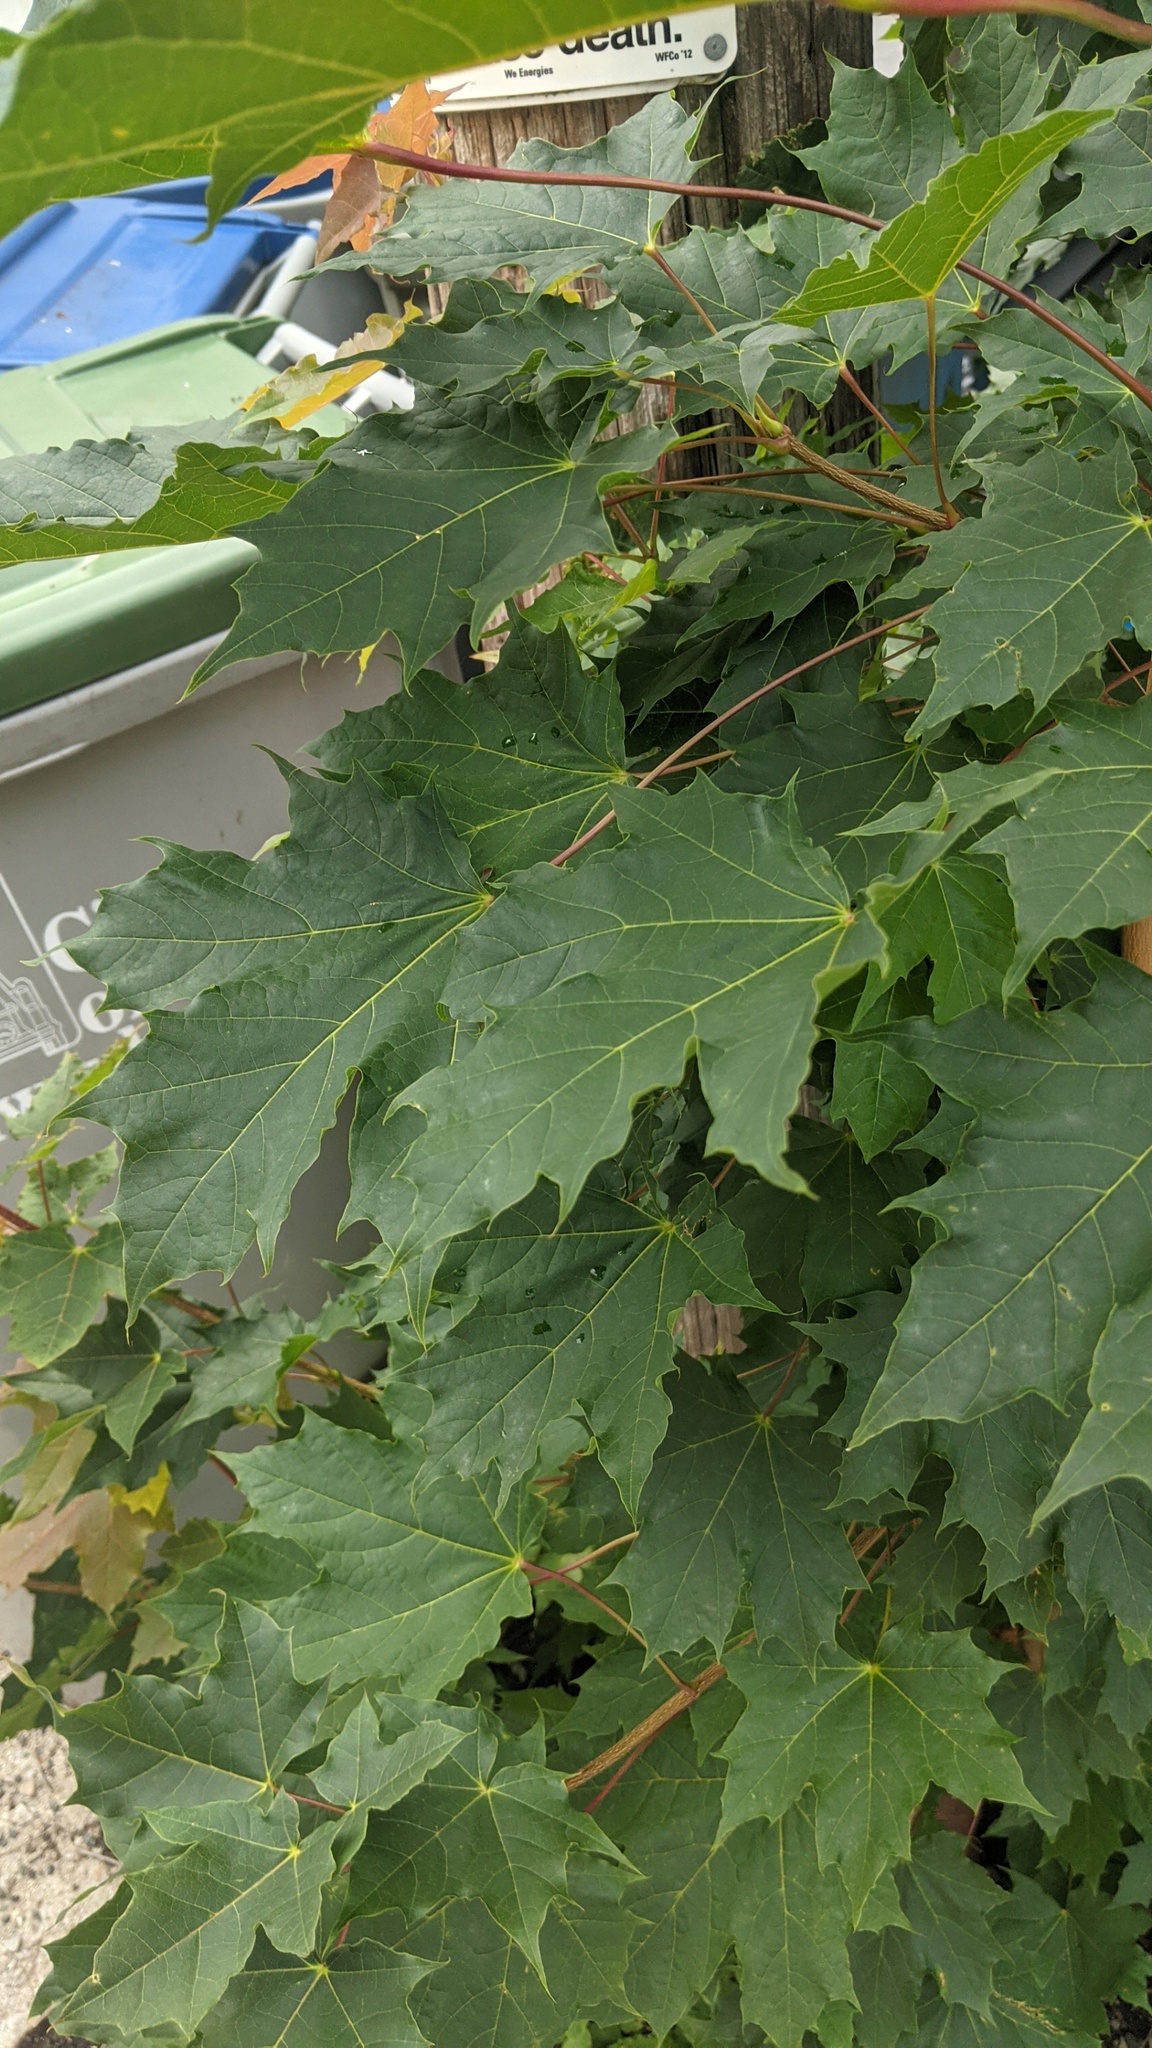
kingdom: Plantae
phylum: Tracheophyta
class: Magnoliopsida
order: Sapindales
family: Sapindaceae
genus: Acer
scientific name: Acer platanoides
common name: Norway maple
